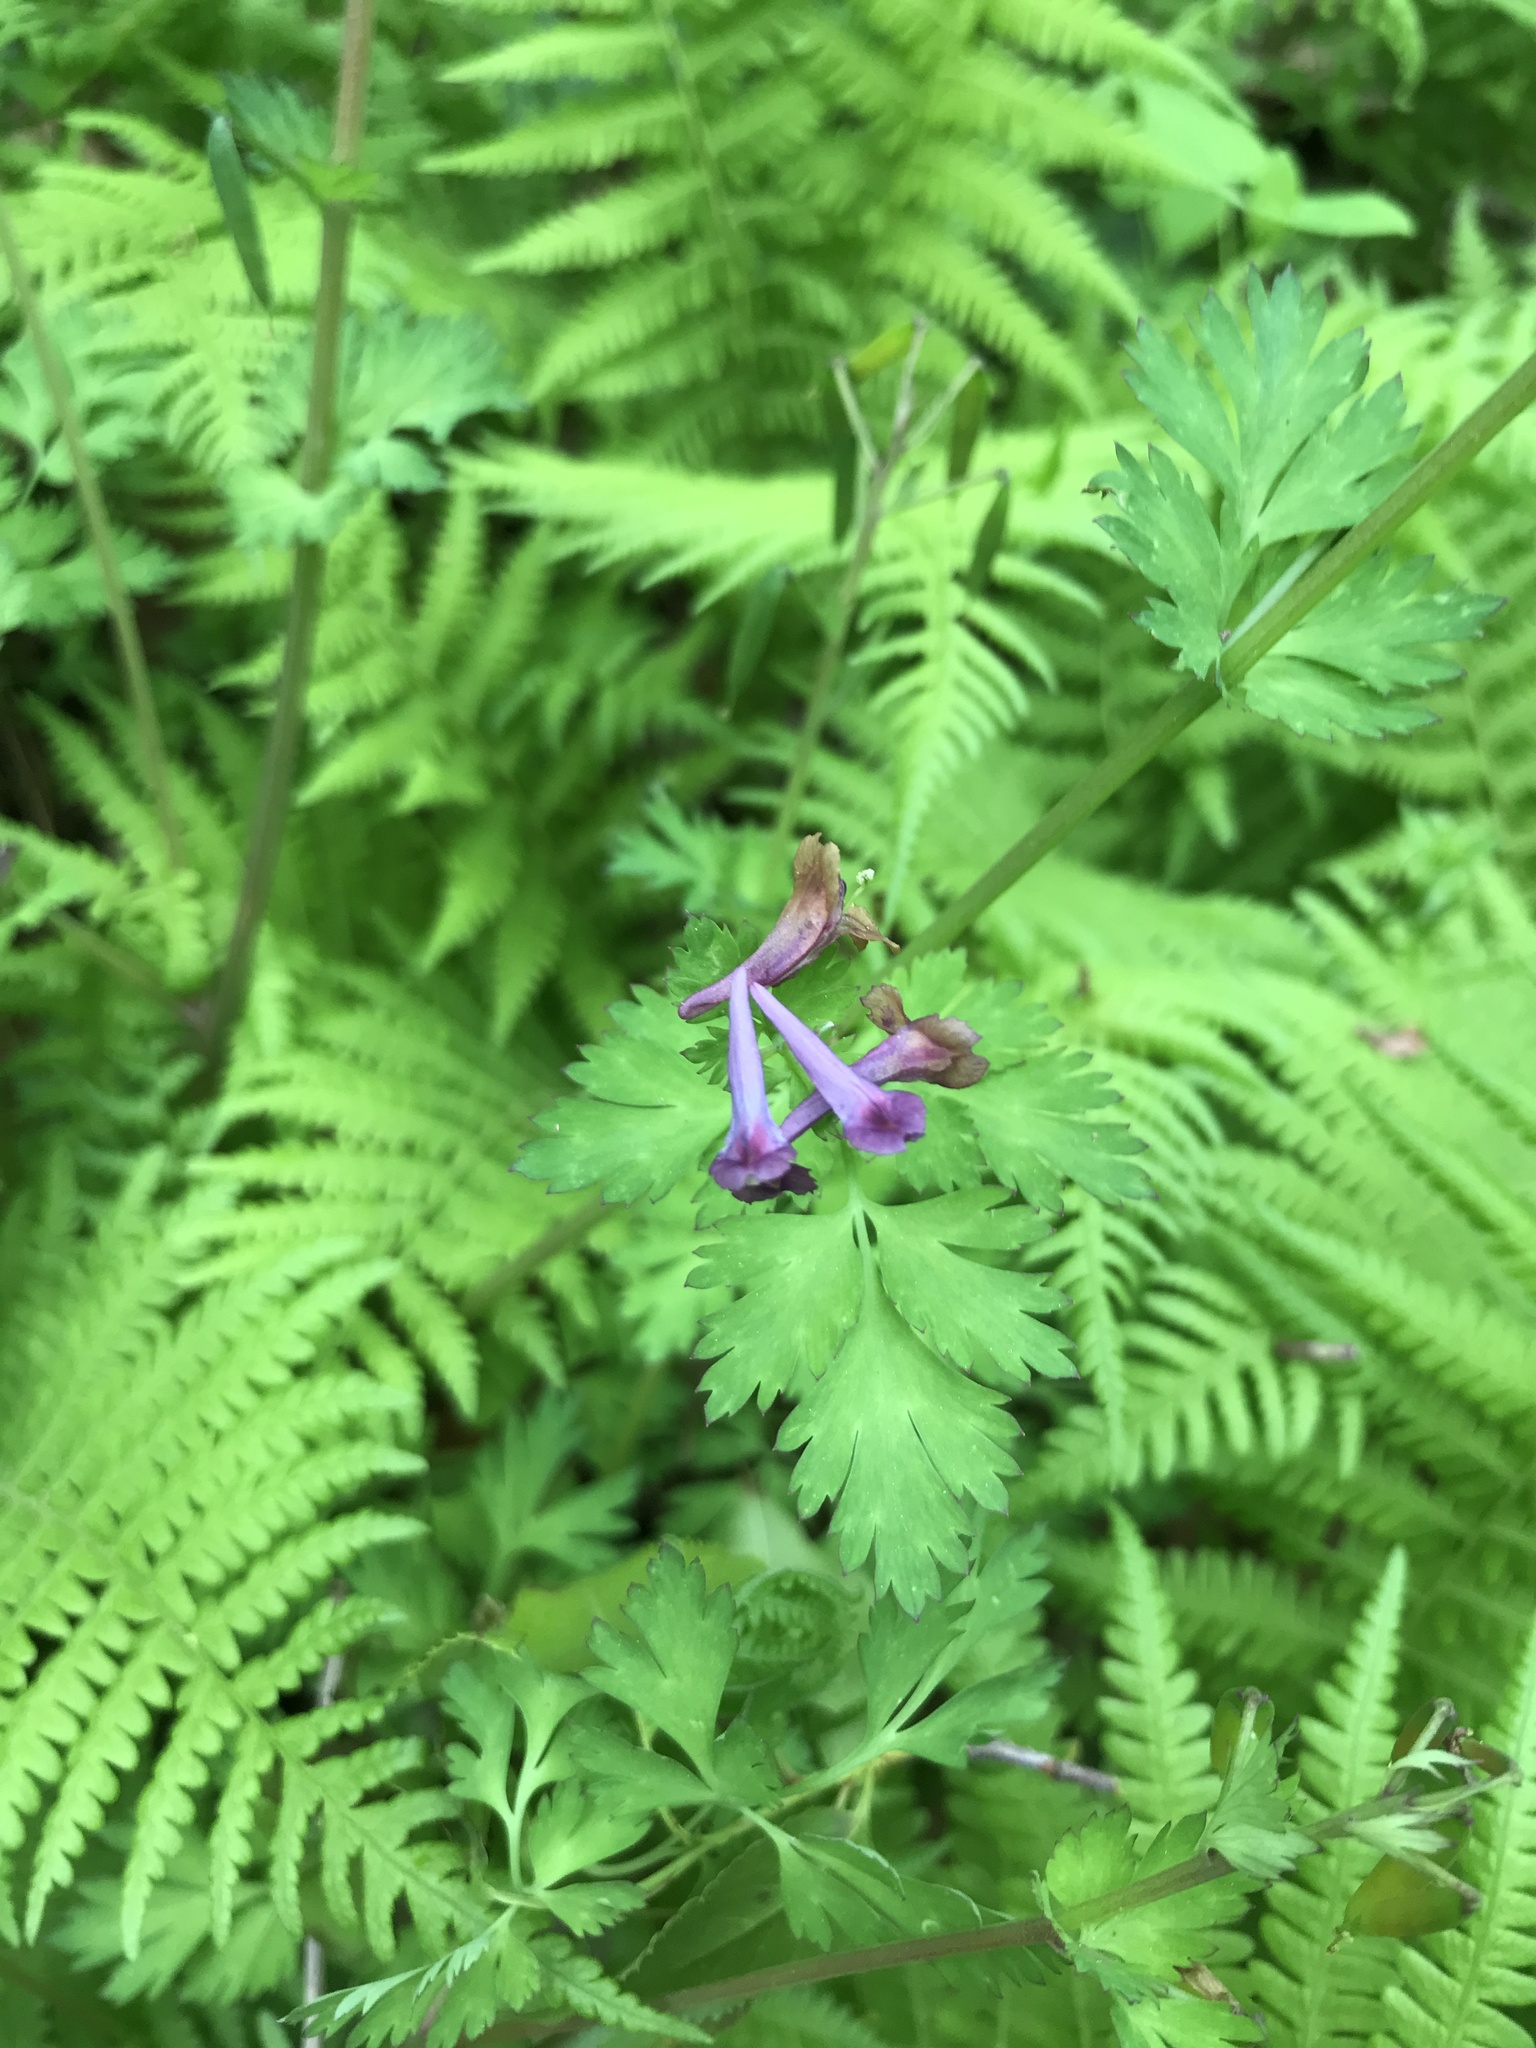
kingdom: Plantae
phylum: Tracheophyta
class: Magnoliopsida
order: Ranunculales
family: Papaveraceae
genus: Corydalis
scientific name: Corydalis incisa
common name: Incised fumewort
